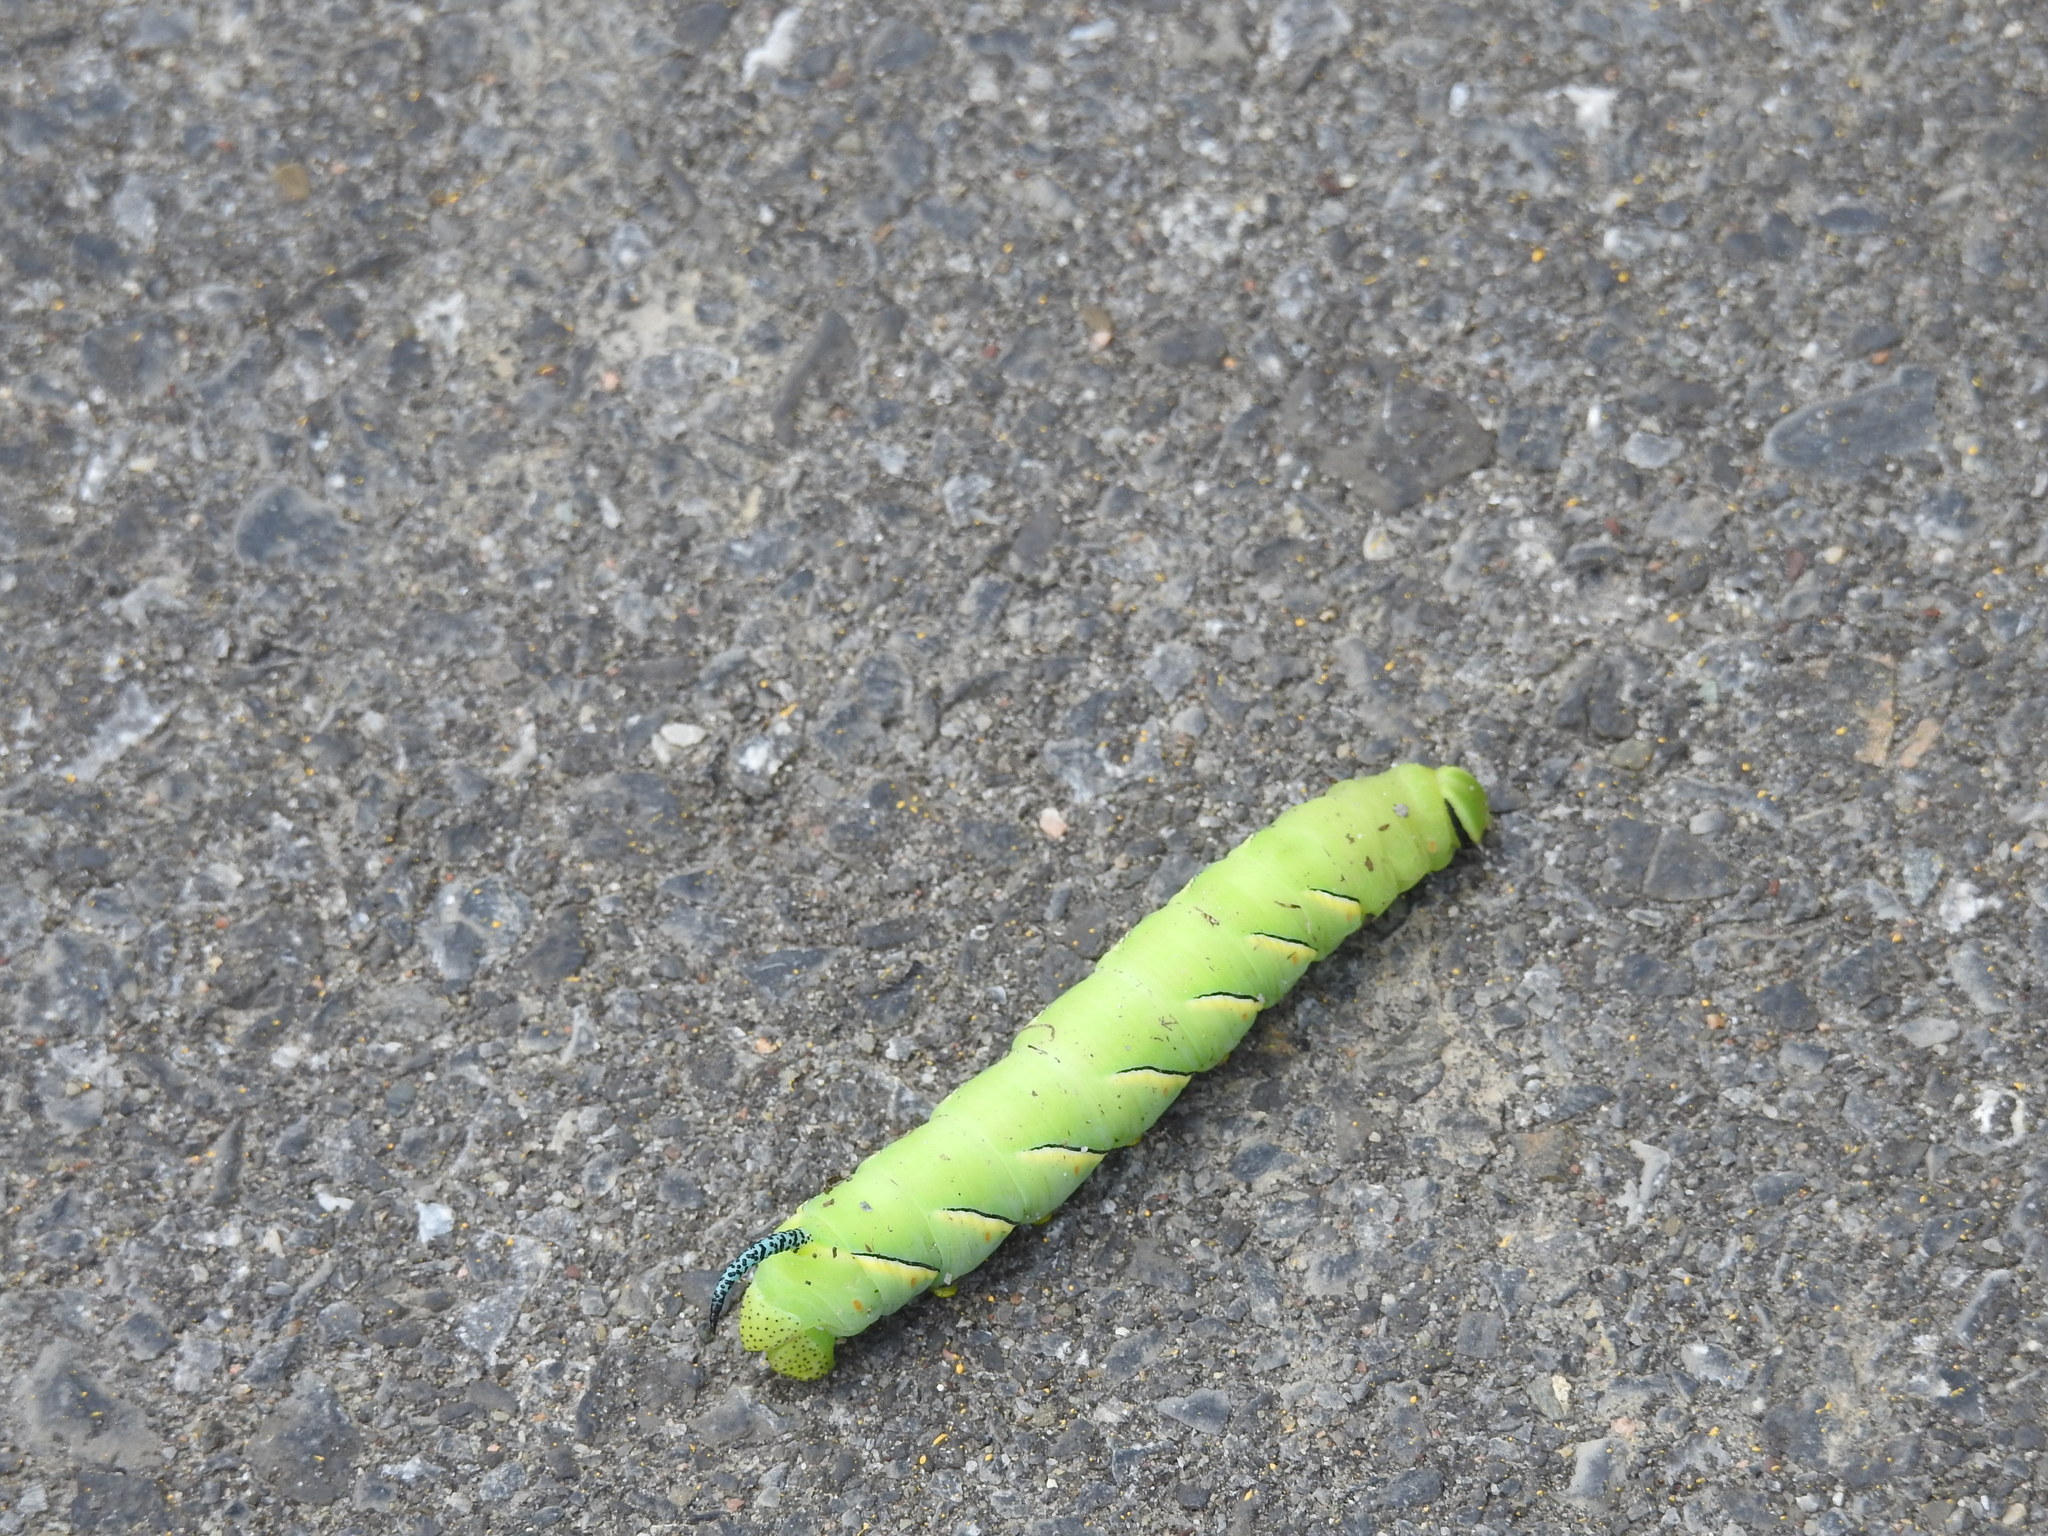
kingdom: Animalia
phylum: Arthropoda
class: Insecta
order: Lepidoptera
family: Sphingidae
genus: Sphinx
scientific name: Sphinx kalmiae
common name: Laurel sphinx
